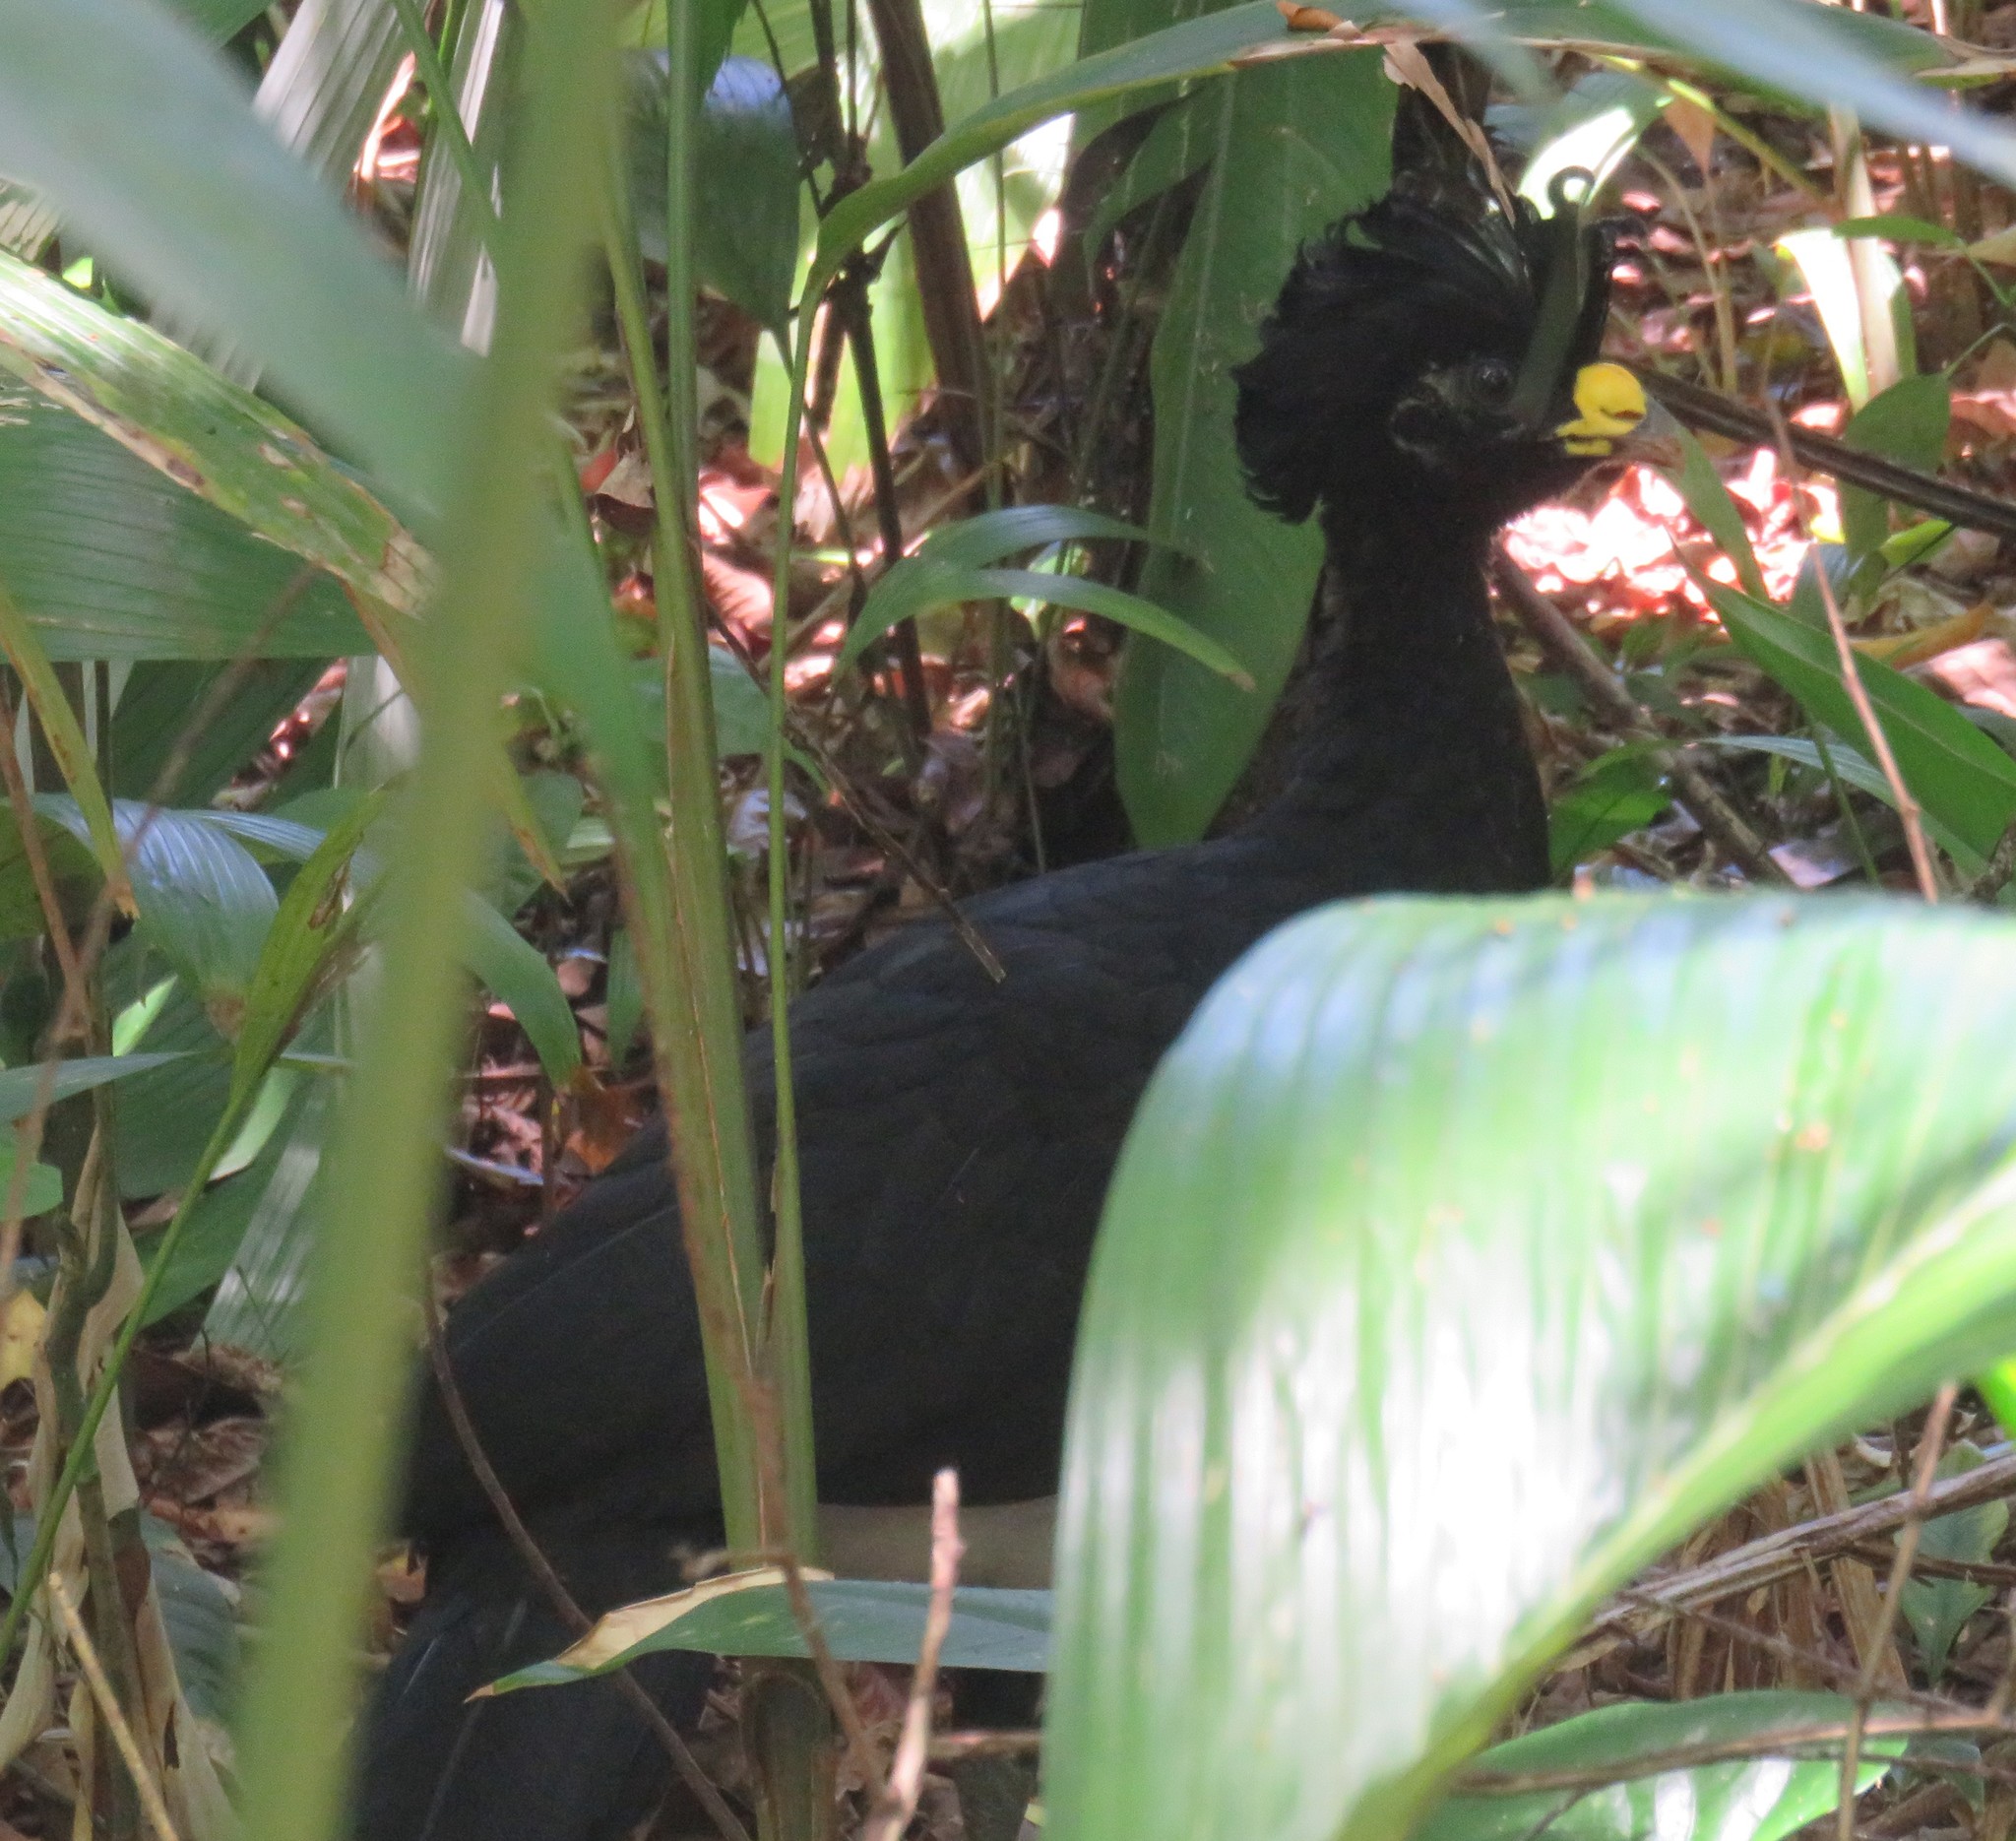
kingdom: Animalia
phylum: Chordata
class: Aves
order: Galliformes
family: Cracidae
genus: Crax
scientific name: Crax rubra
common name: Great curassow
